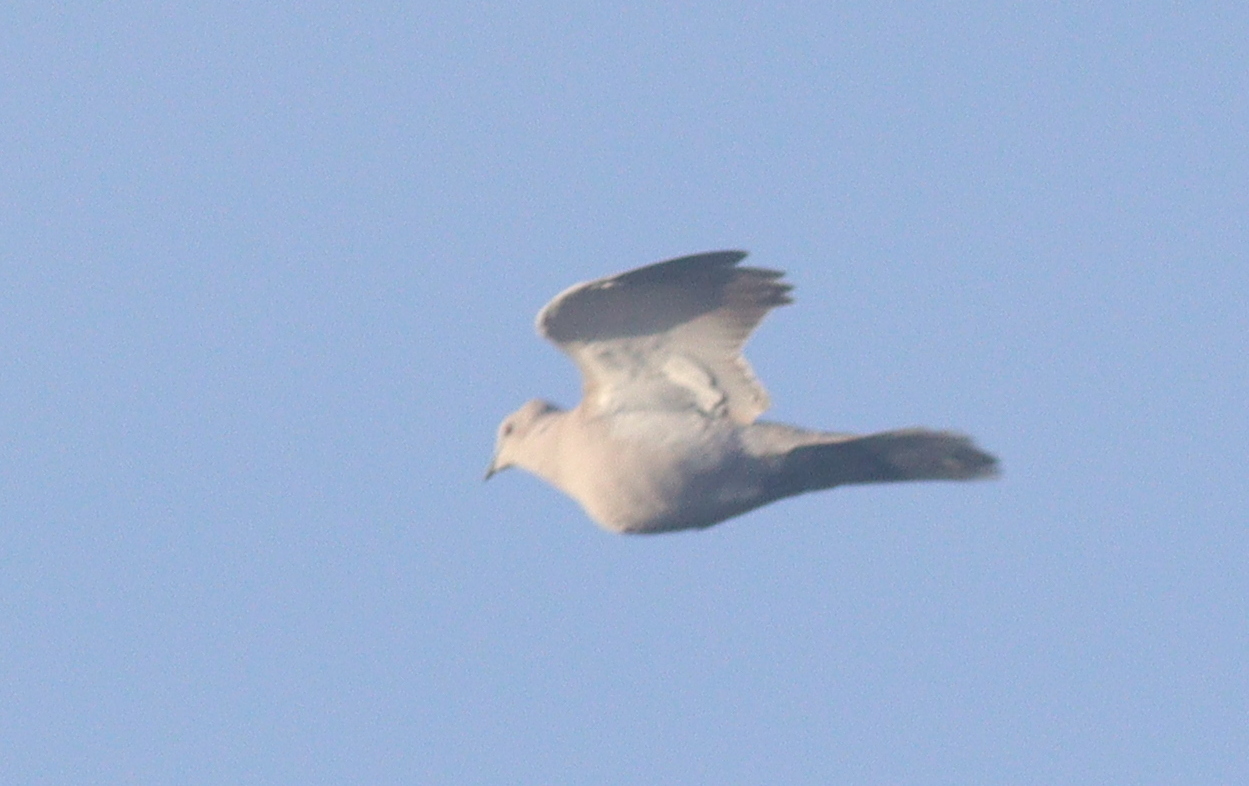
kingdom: Animalia
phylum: Chordata
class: Aves
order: Columbiformes
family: Columbidae
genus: Streptopelia
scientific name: Streptopelia decaocto
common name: Eurasian collared dove
